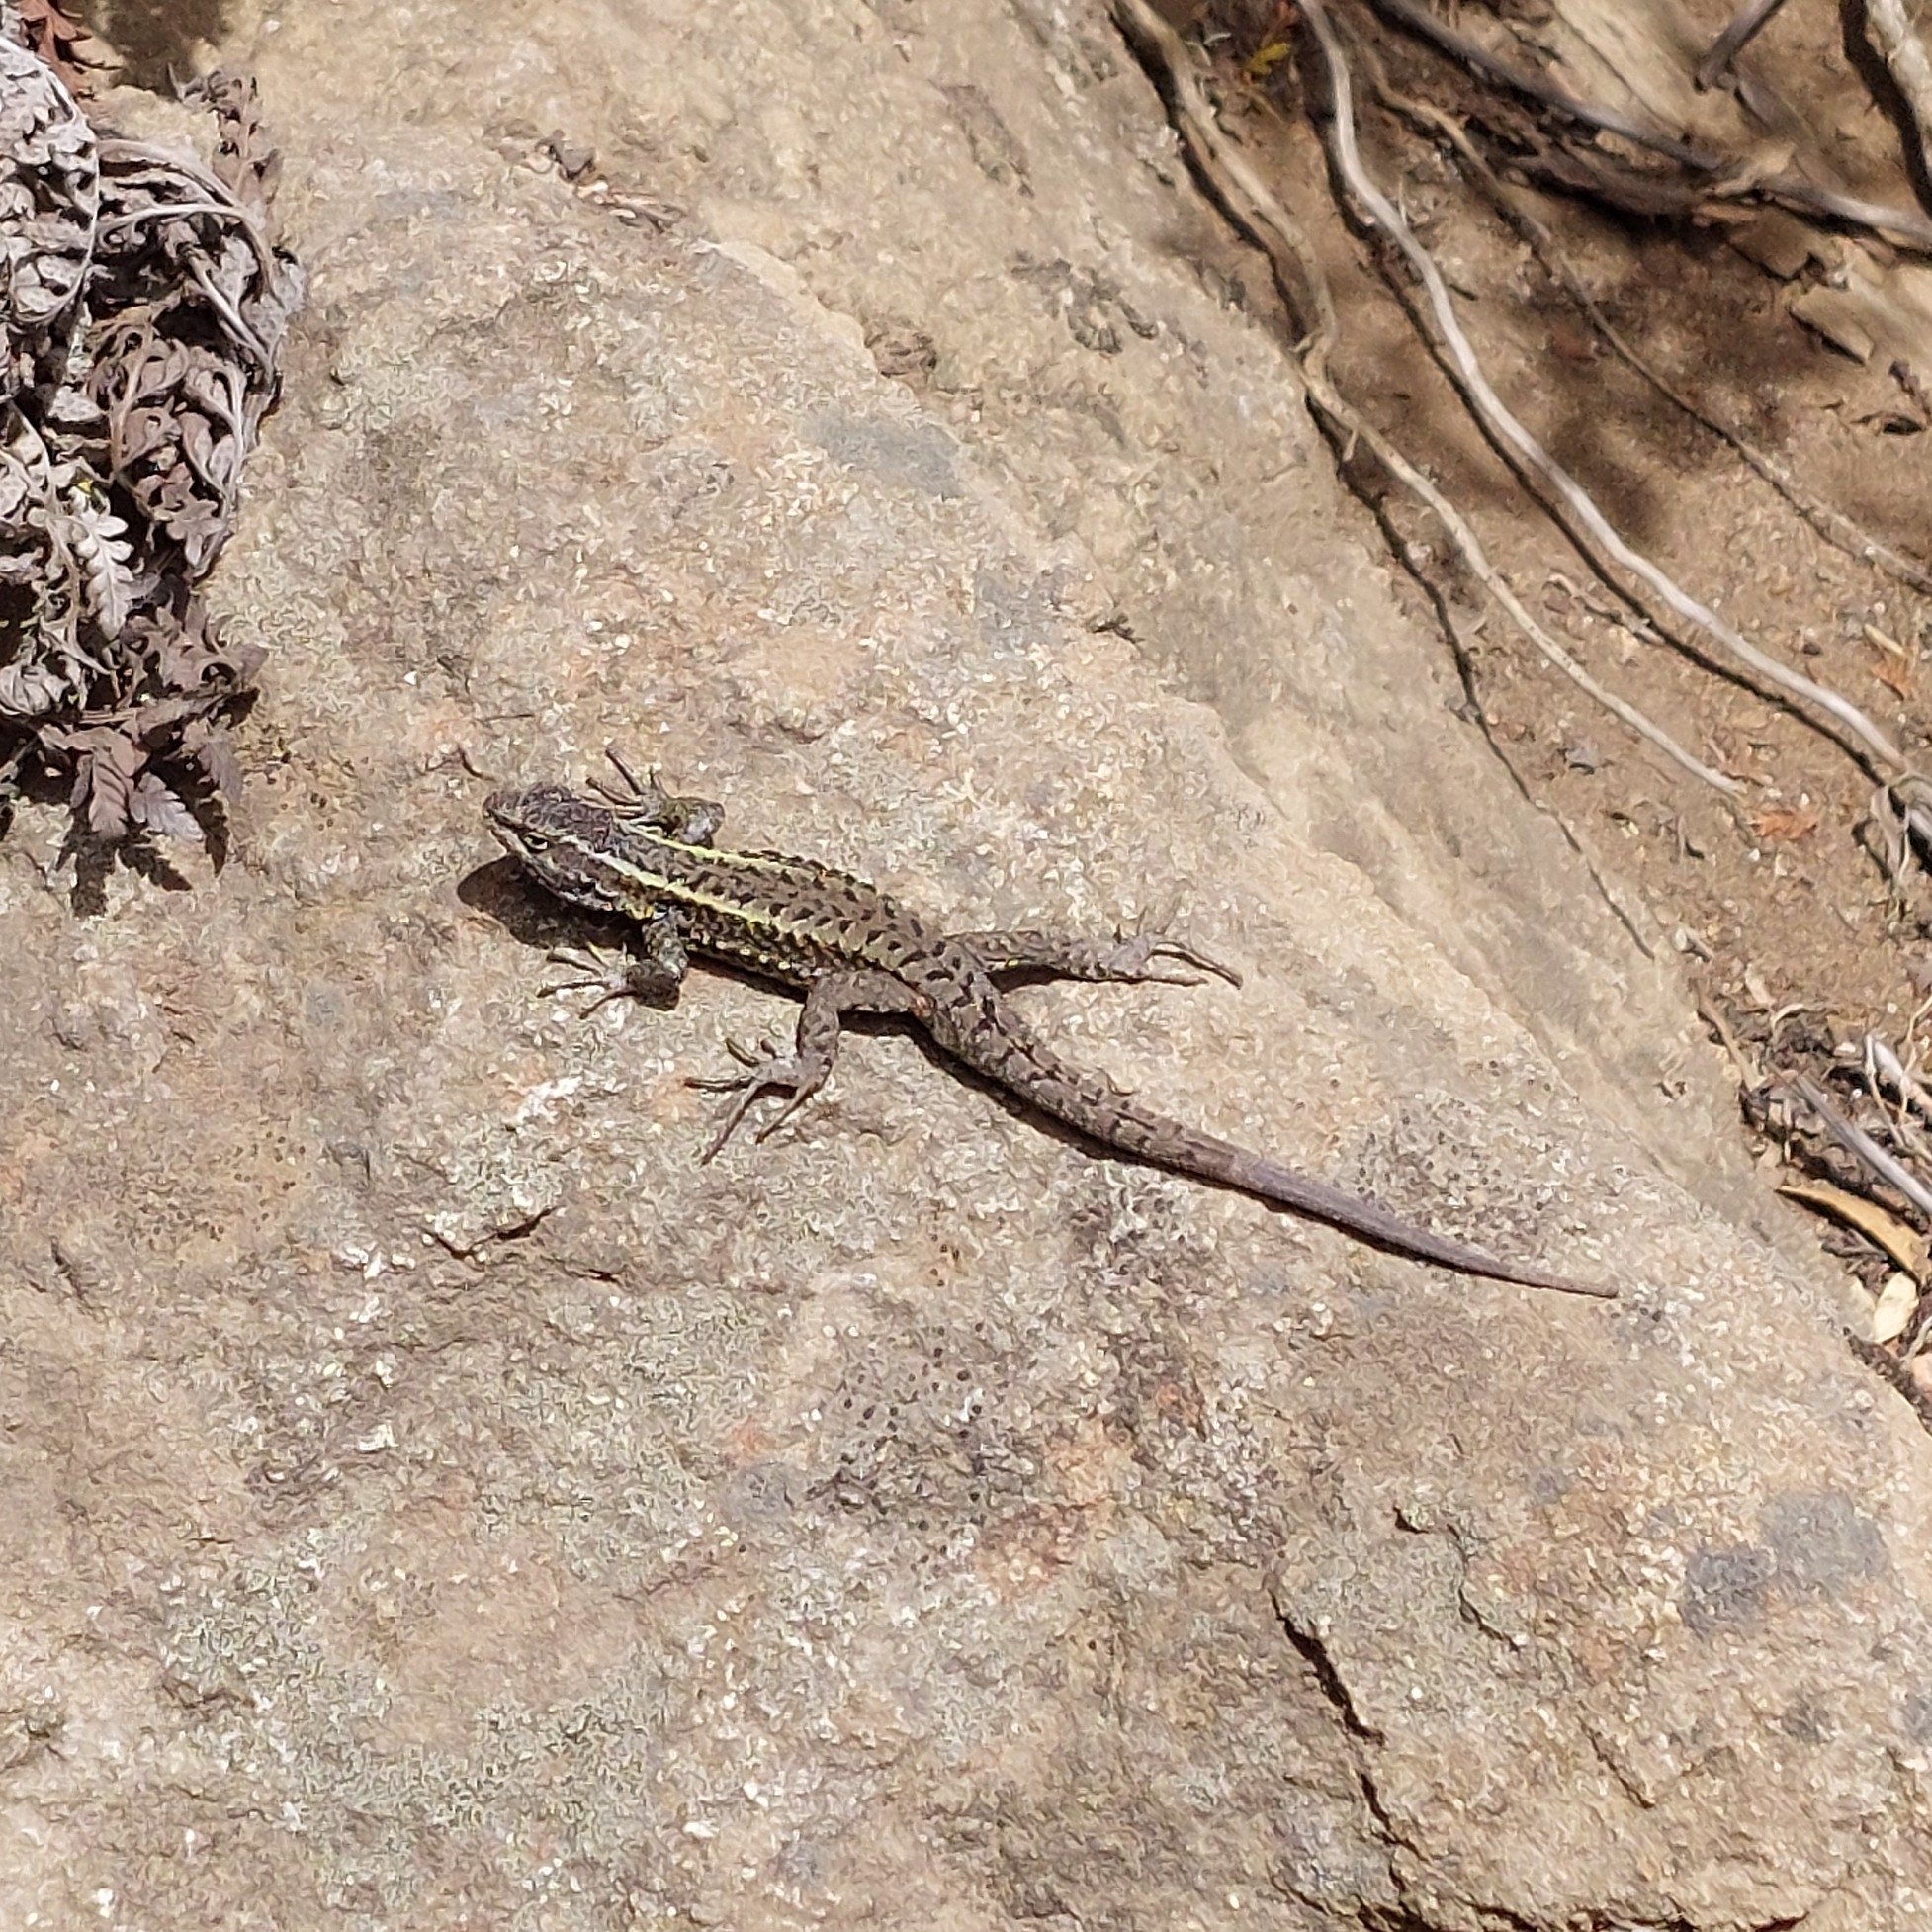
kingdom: Animalia
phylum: Chordata
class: Squamata
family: Liolaemidae
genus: Liolaemus
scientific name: Liolaemus pictus
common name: Painted tree iguana
